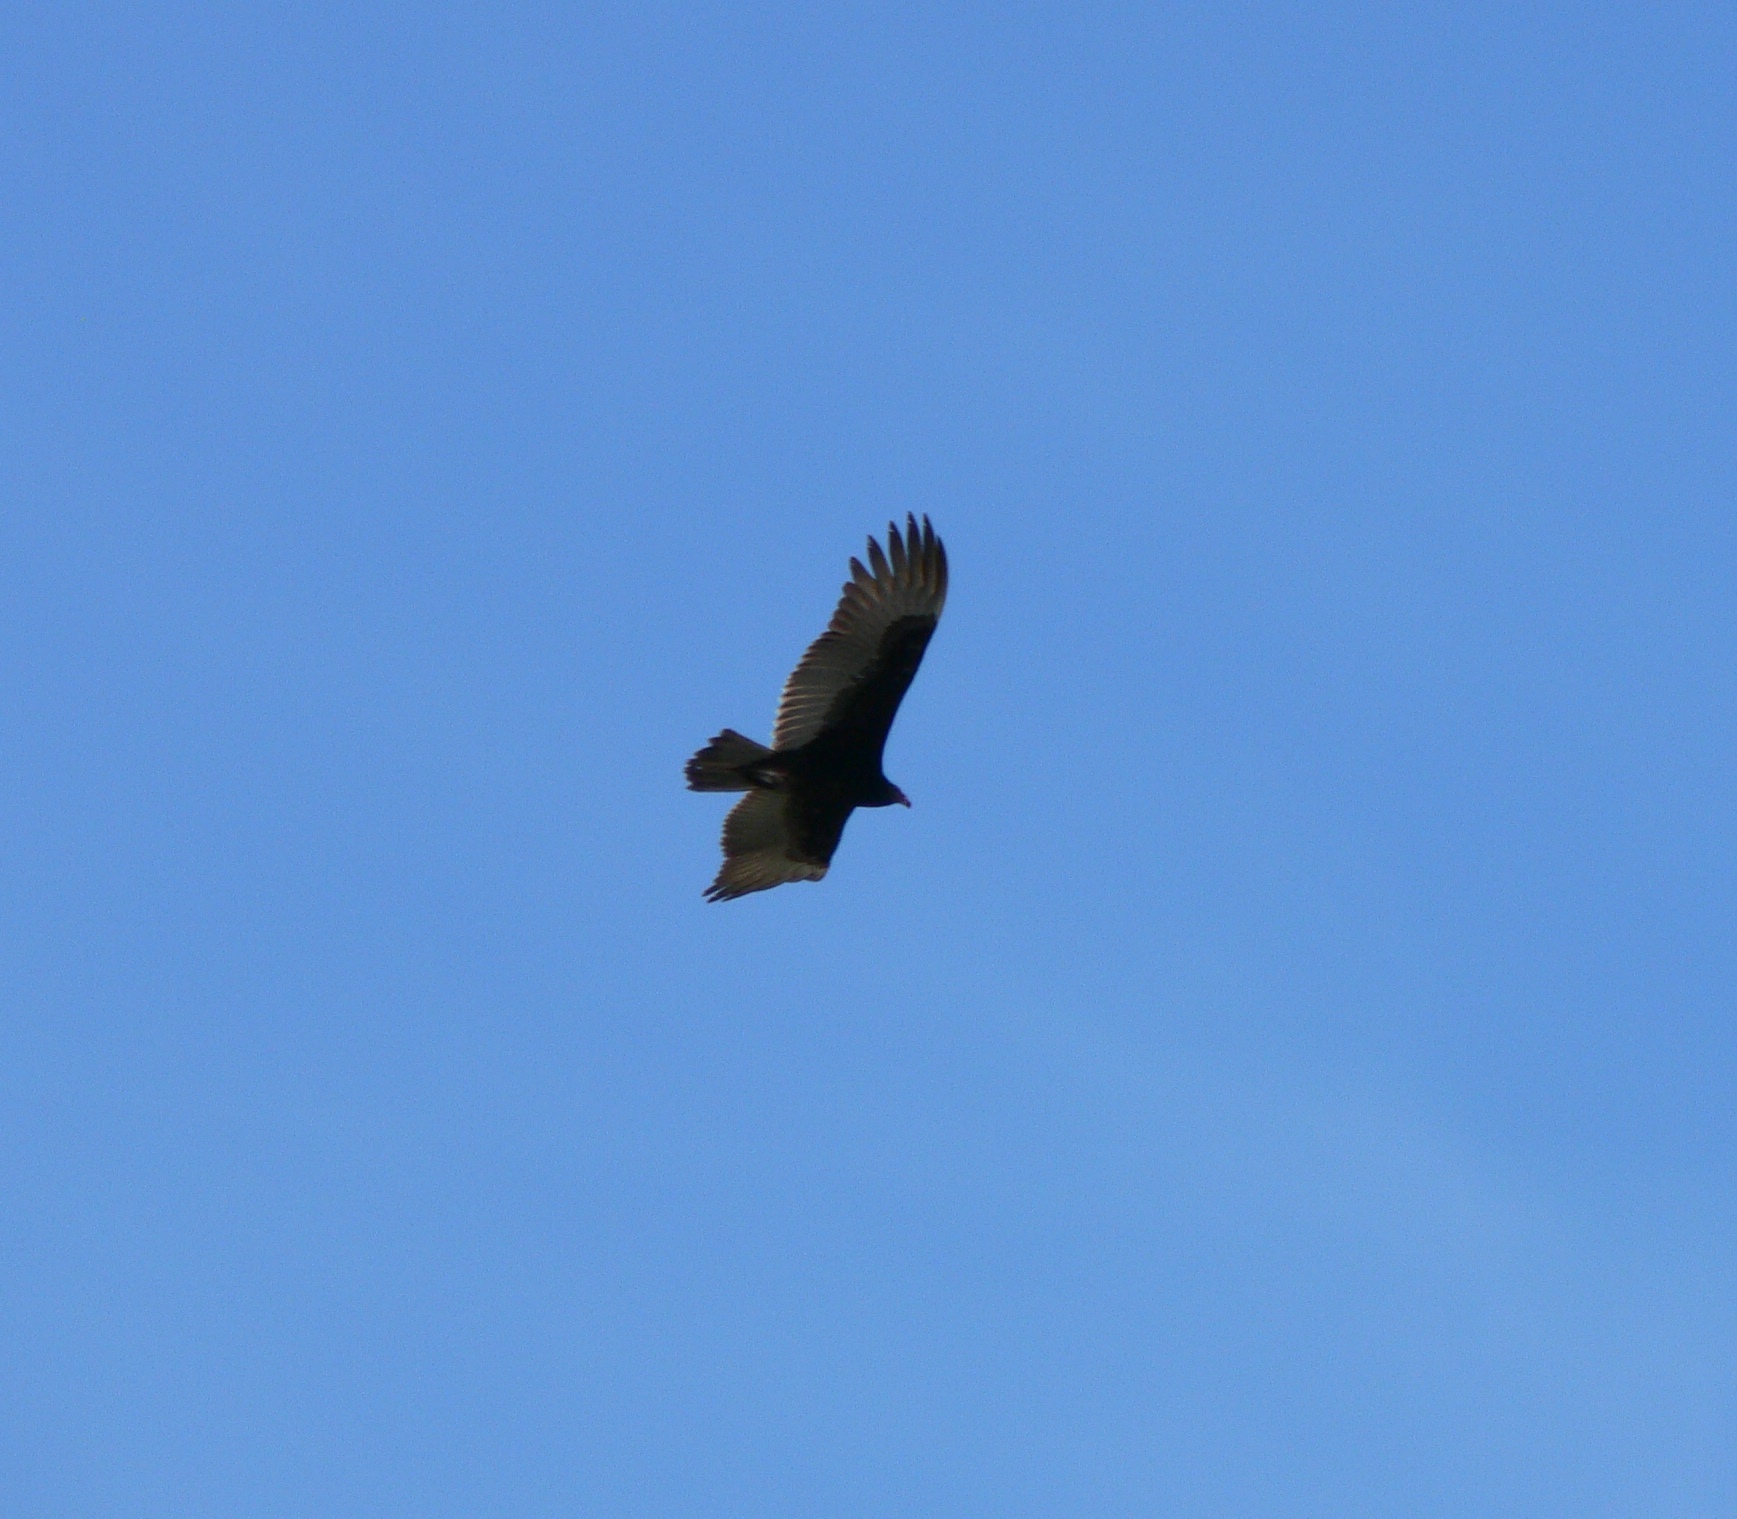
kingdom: Animalia
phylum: Chordata
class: Aves
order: Accipitriformes
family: Cathartidae
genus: Cathartes
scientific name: Cathartes aura
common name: Turkey vulture
